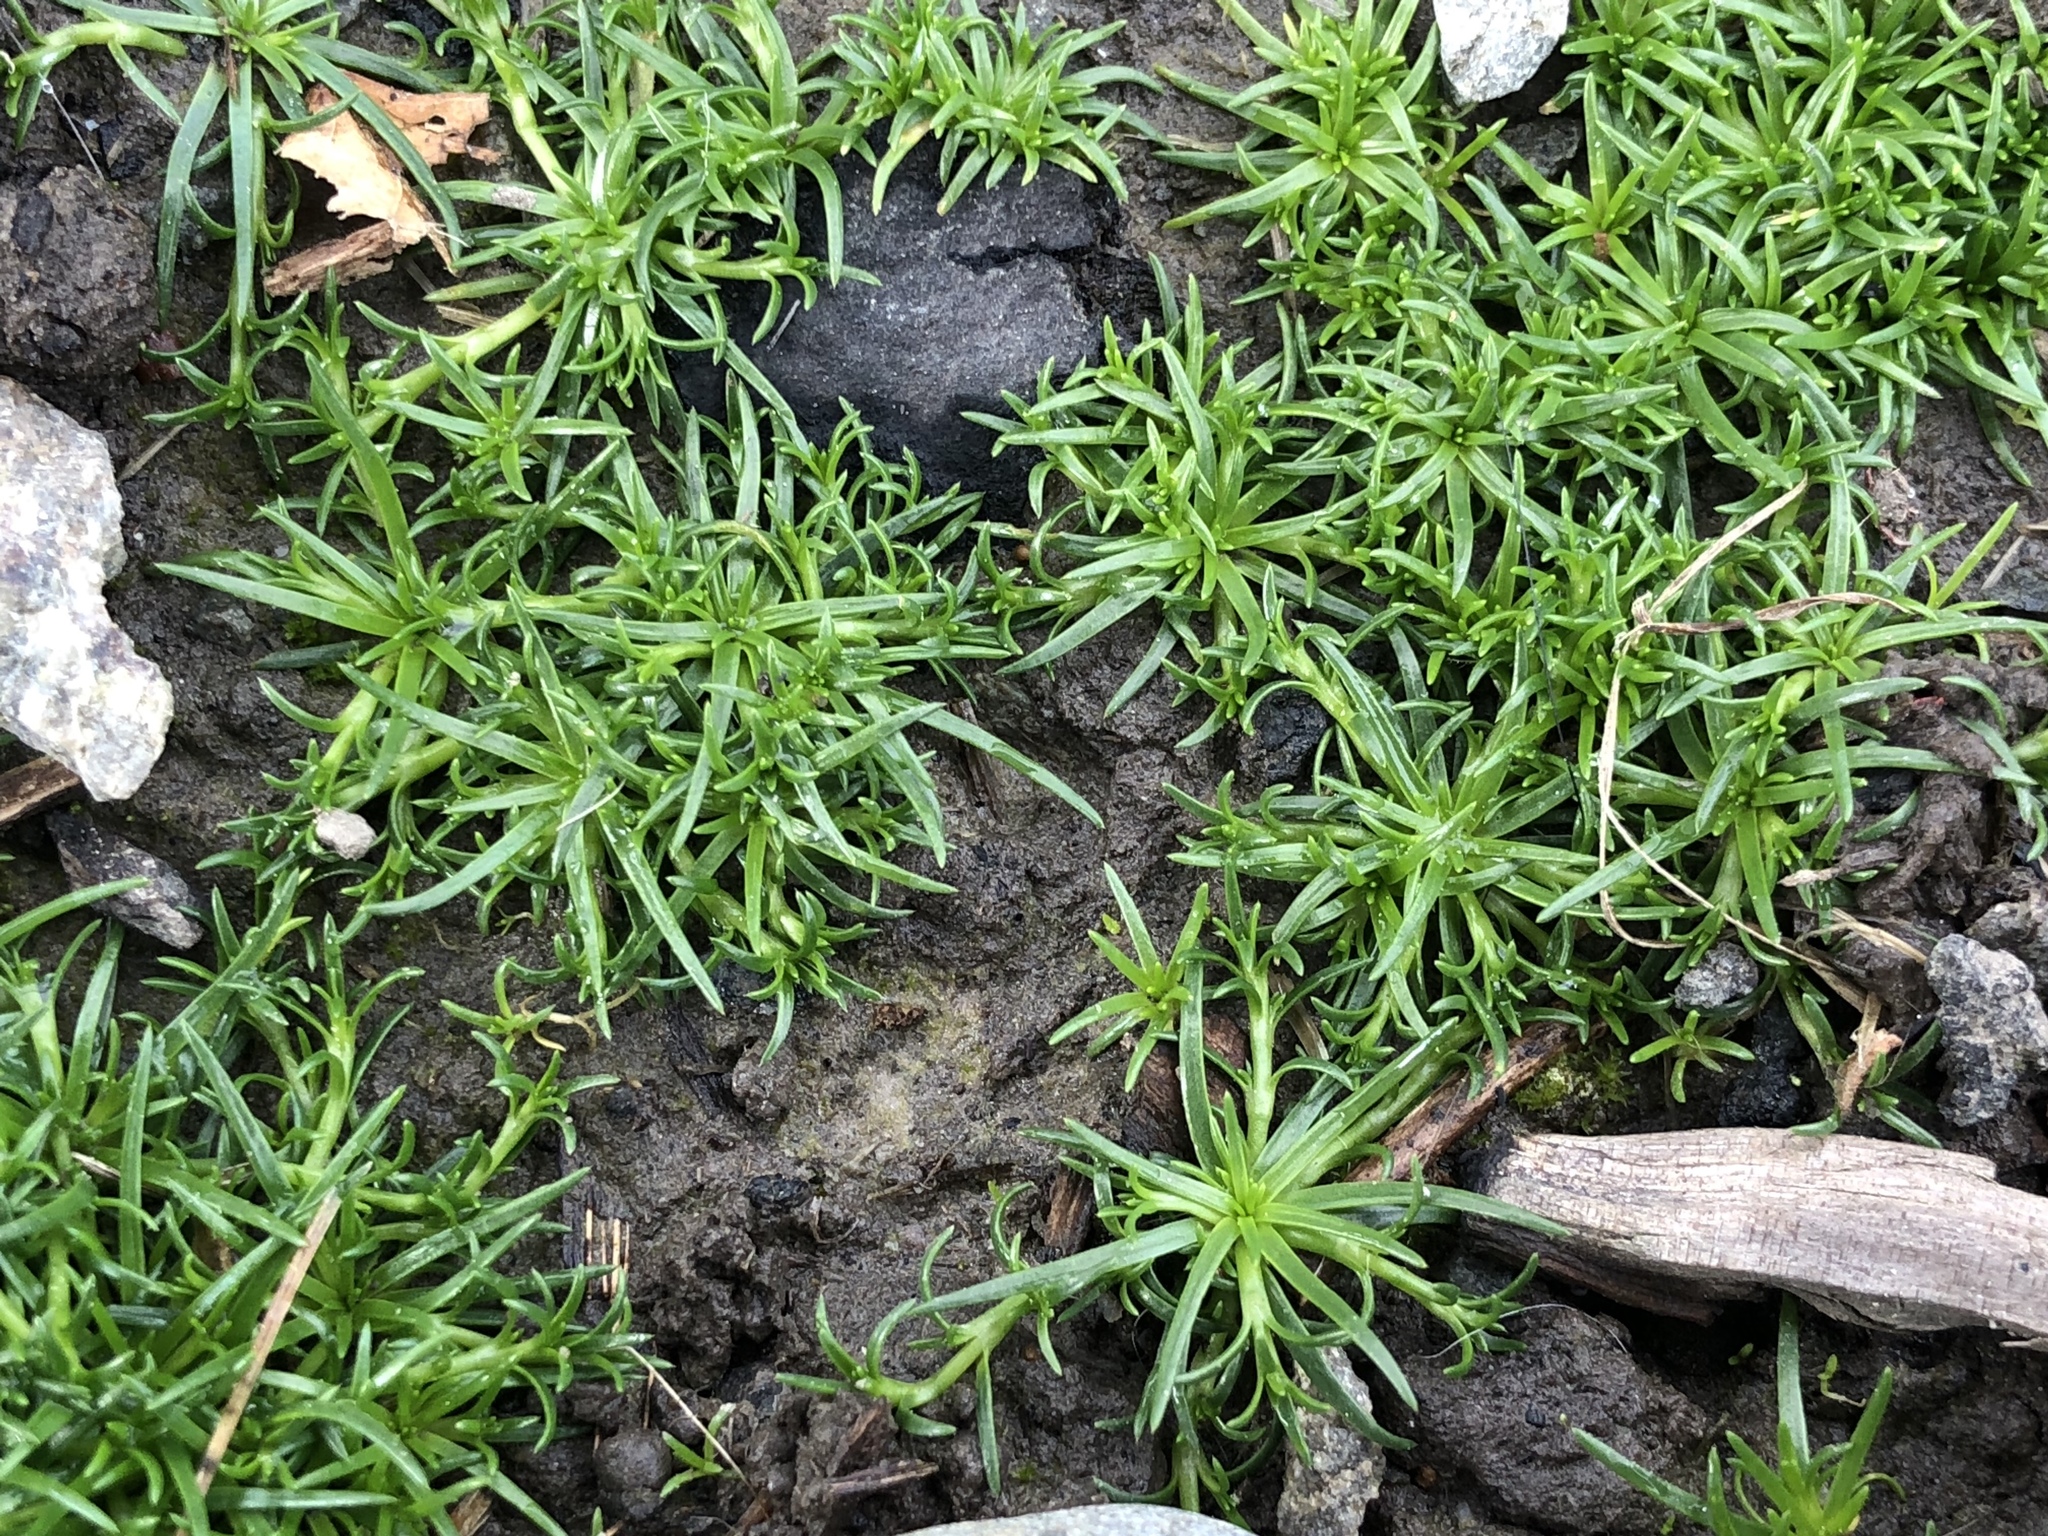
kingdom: Plantae
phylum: Tracheophyta
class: Magnoliopsida
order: Caryophyllales
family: Caryophyllaceae
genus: Sagina
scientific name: Sagina procumbens
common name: Procumbent pearlwort
